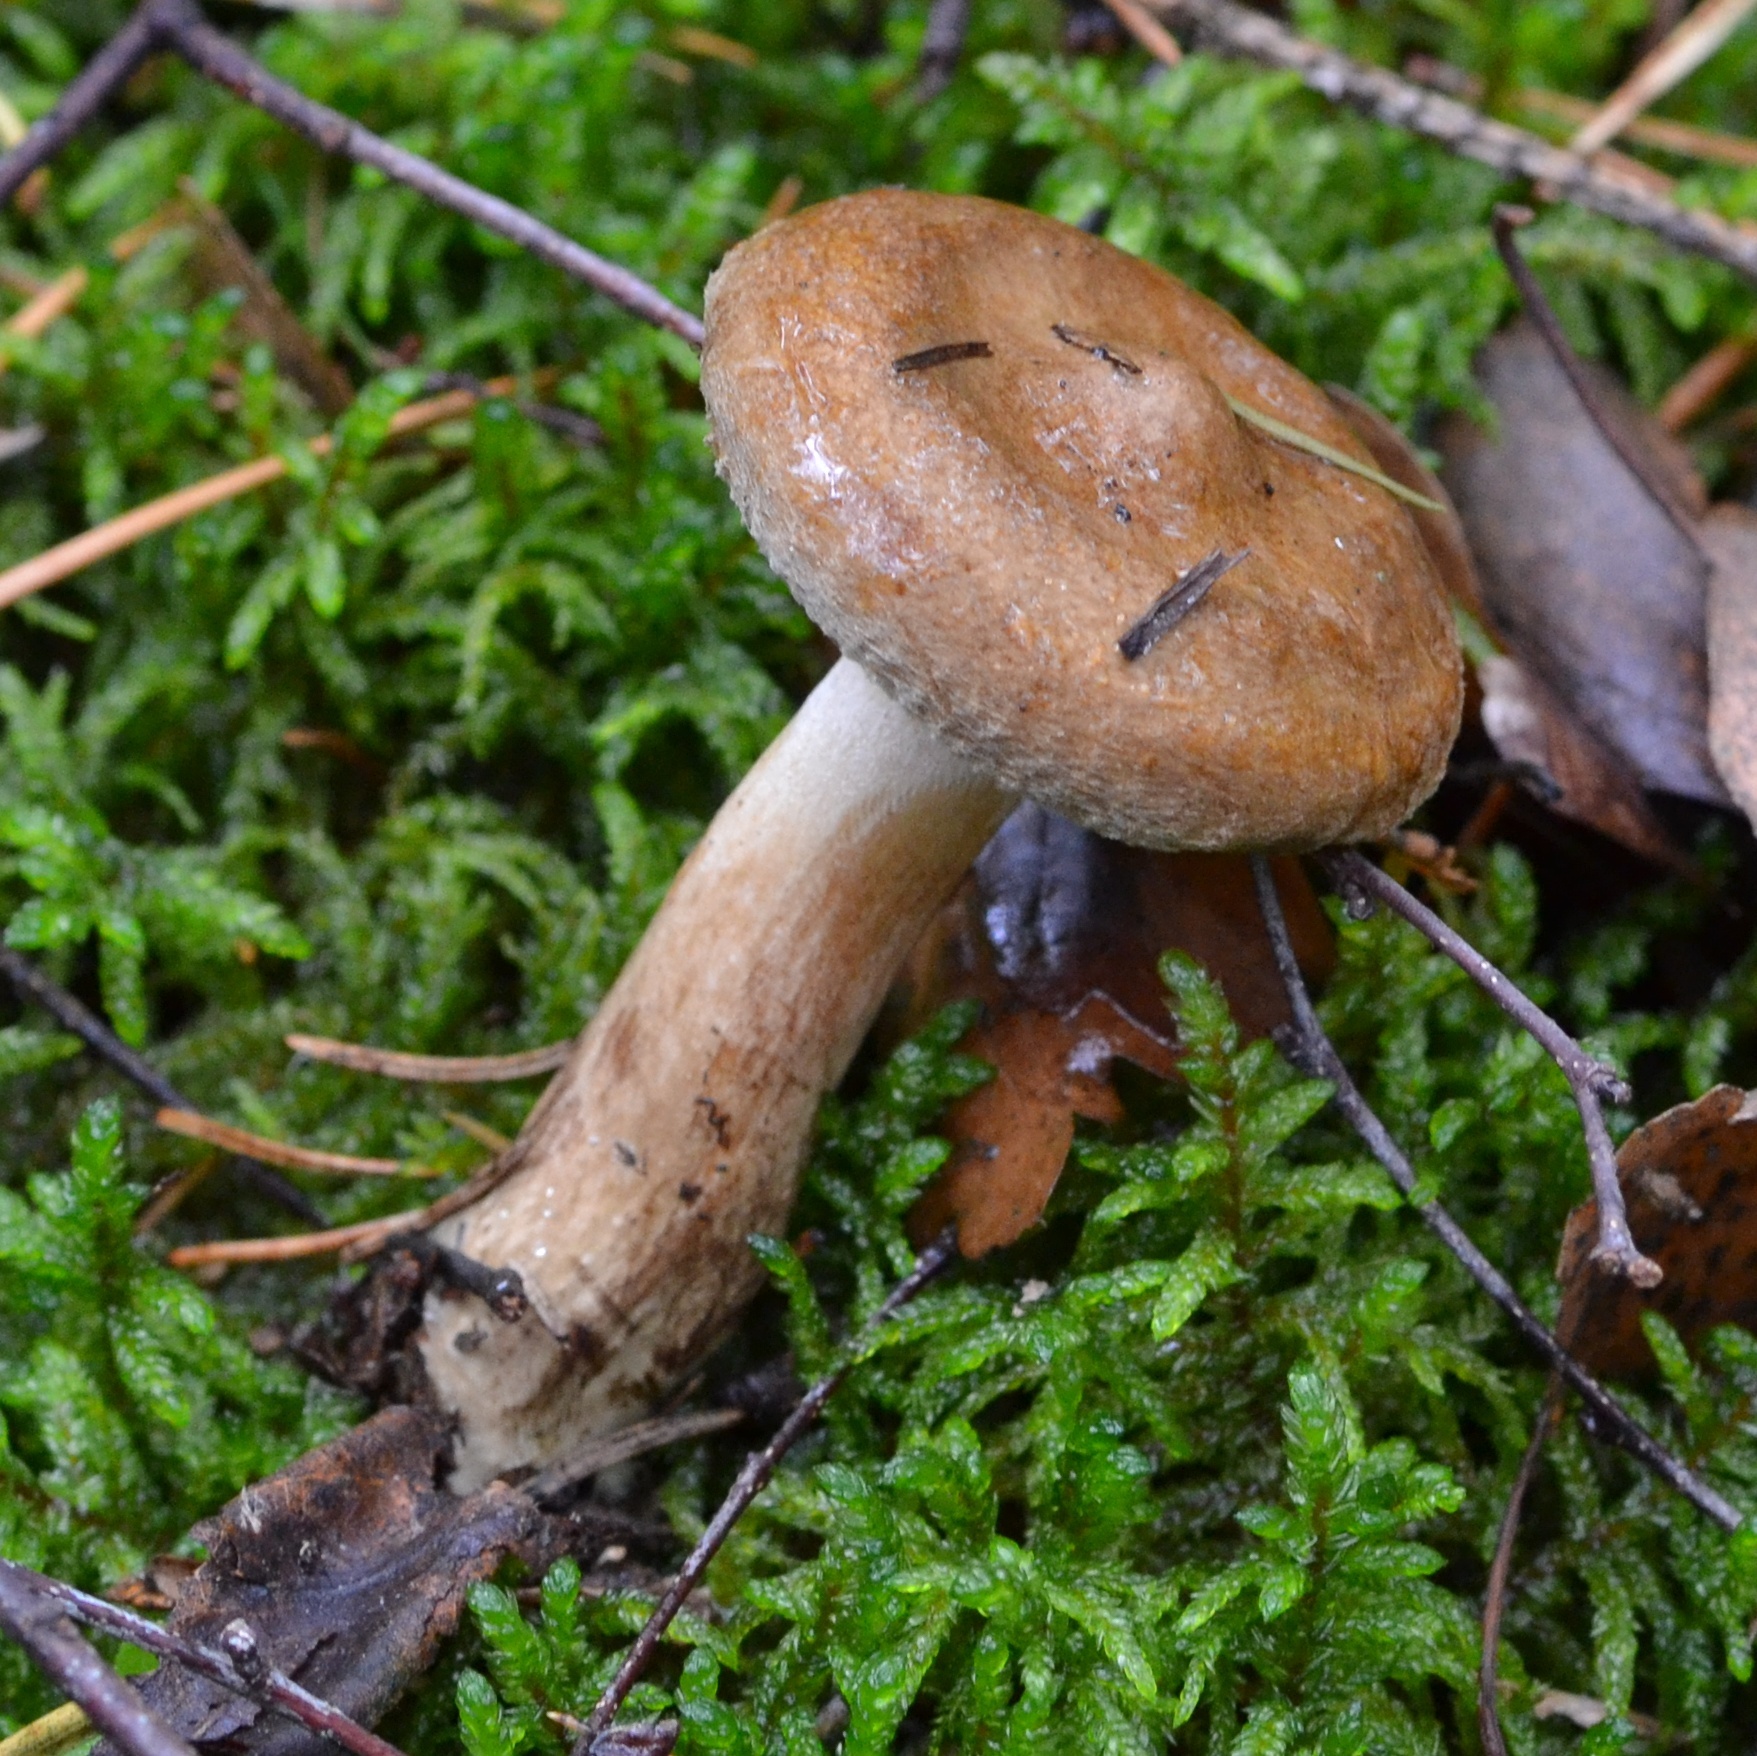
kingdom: Fungi
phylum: Basidiomycota
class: Agaricomycetes
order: Boletales
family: Paxillaceae
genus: Paxillus
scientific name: Paxillus involutus
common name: Brown roll rim
